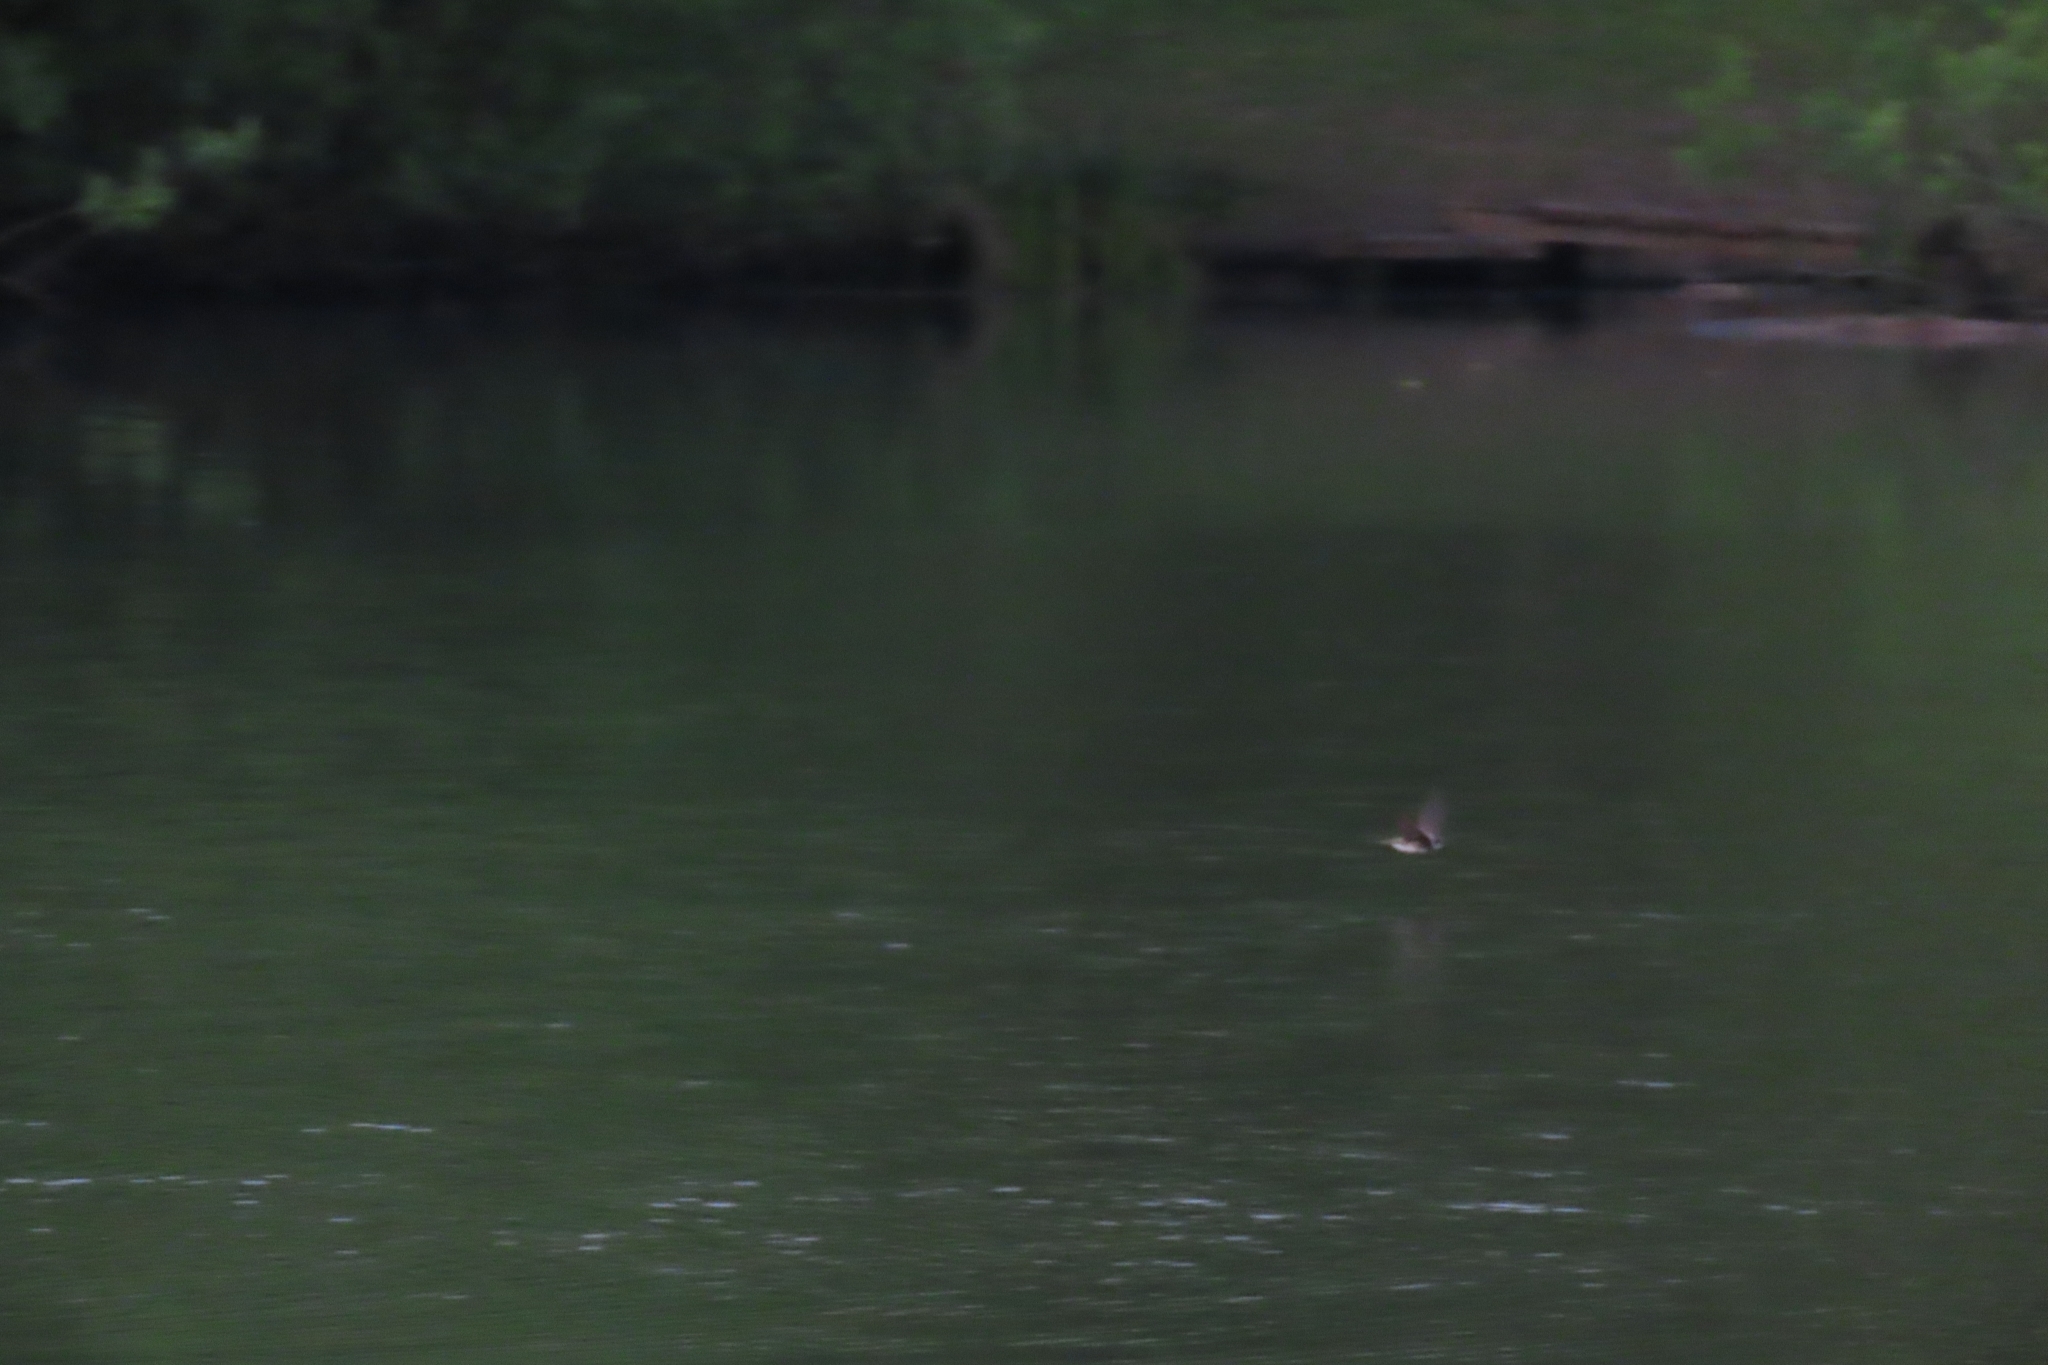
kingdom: Animalia
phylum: Chordata
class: Aves
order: Passeriformes
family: Hirundinidae
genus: Riparia
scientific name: Riparia riparia
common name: Sand martin
